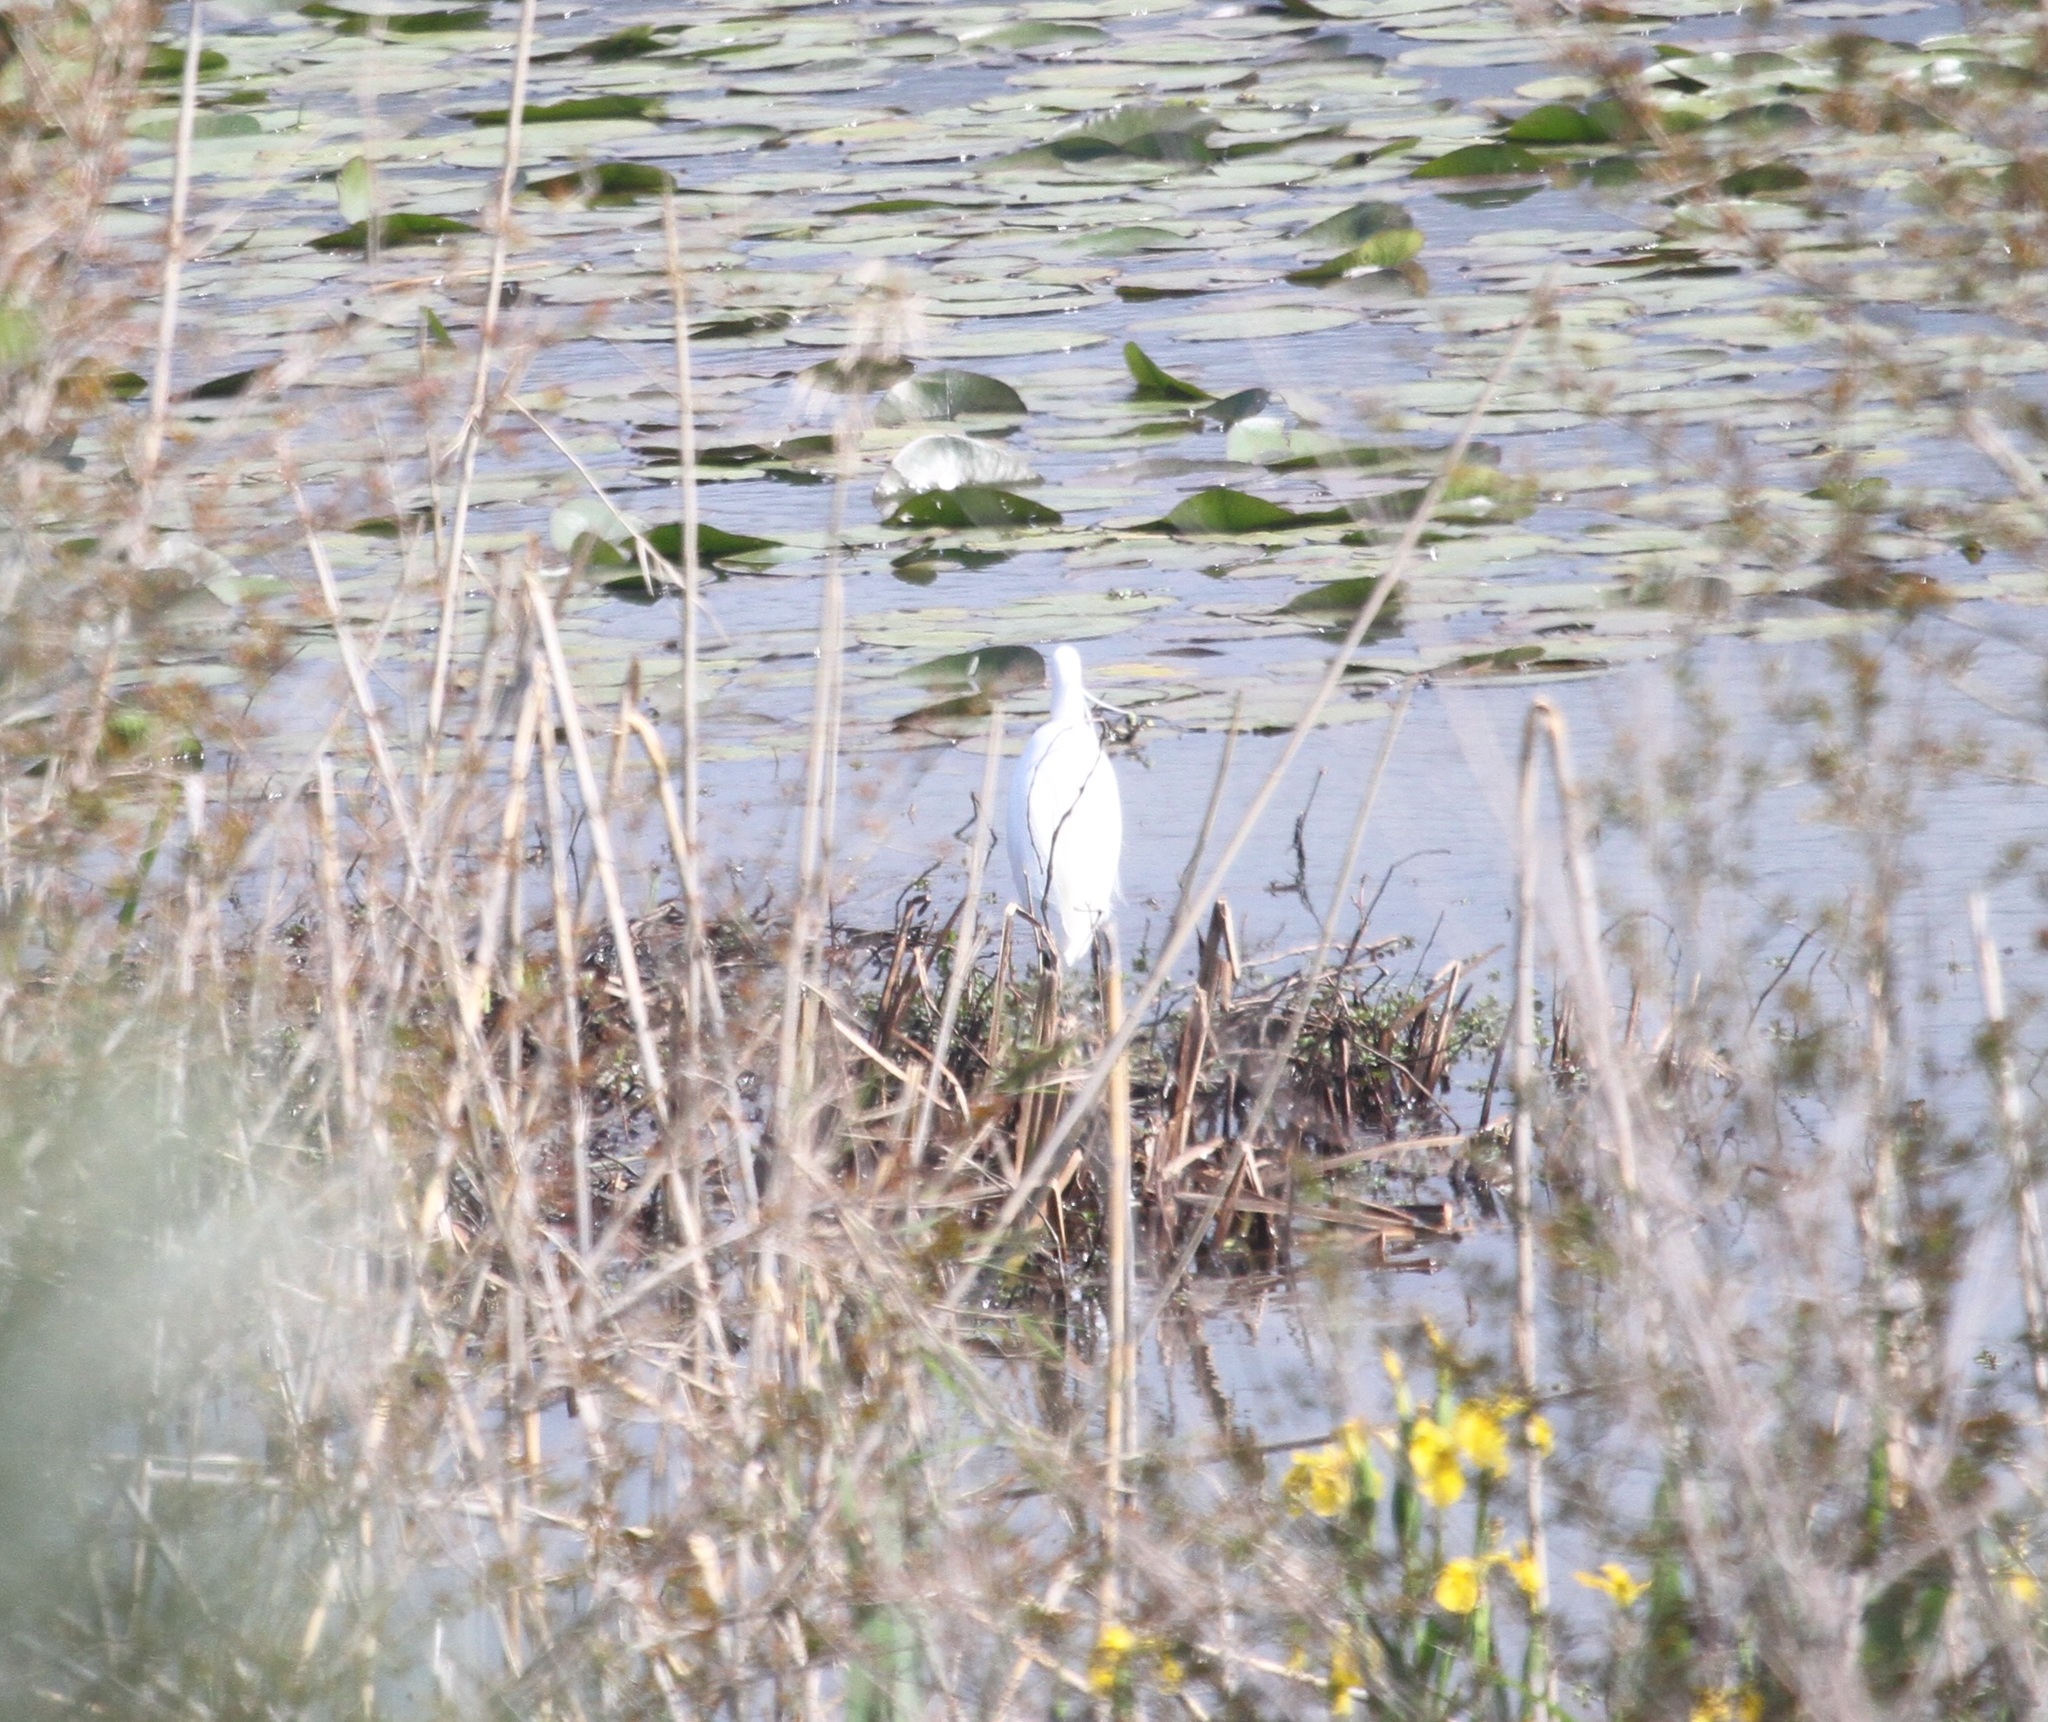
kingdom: Animalia
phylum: Chordata
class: Aves
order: Pelecaniformes
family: Ardeidae
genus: Egretta
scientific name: Egretta garzetta
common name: Little egret
